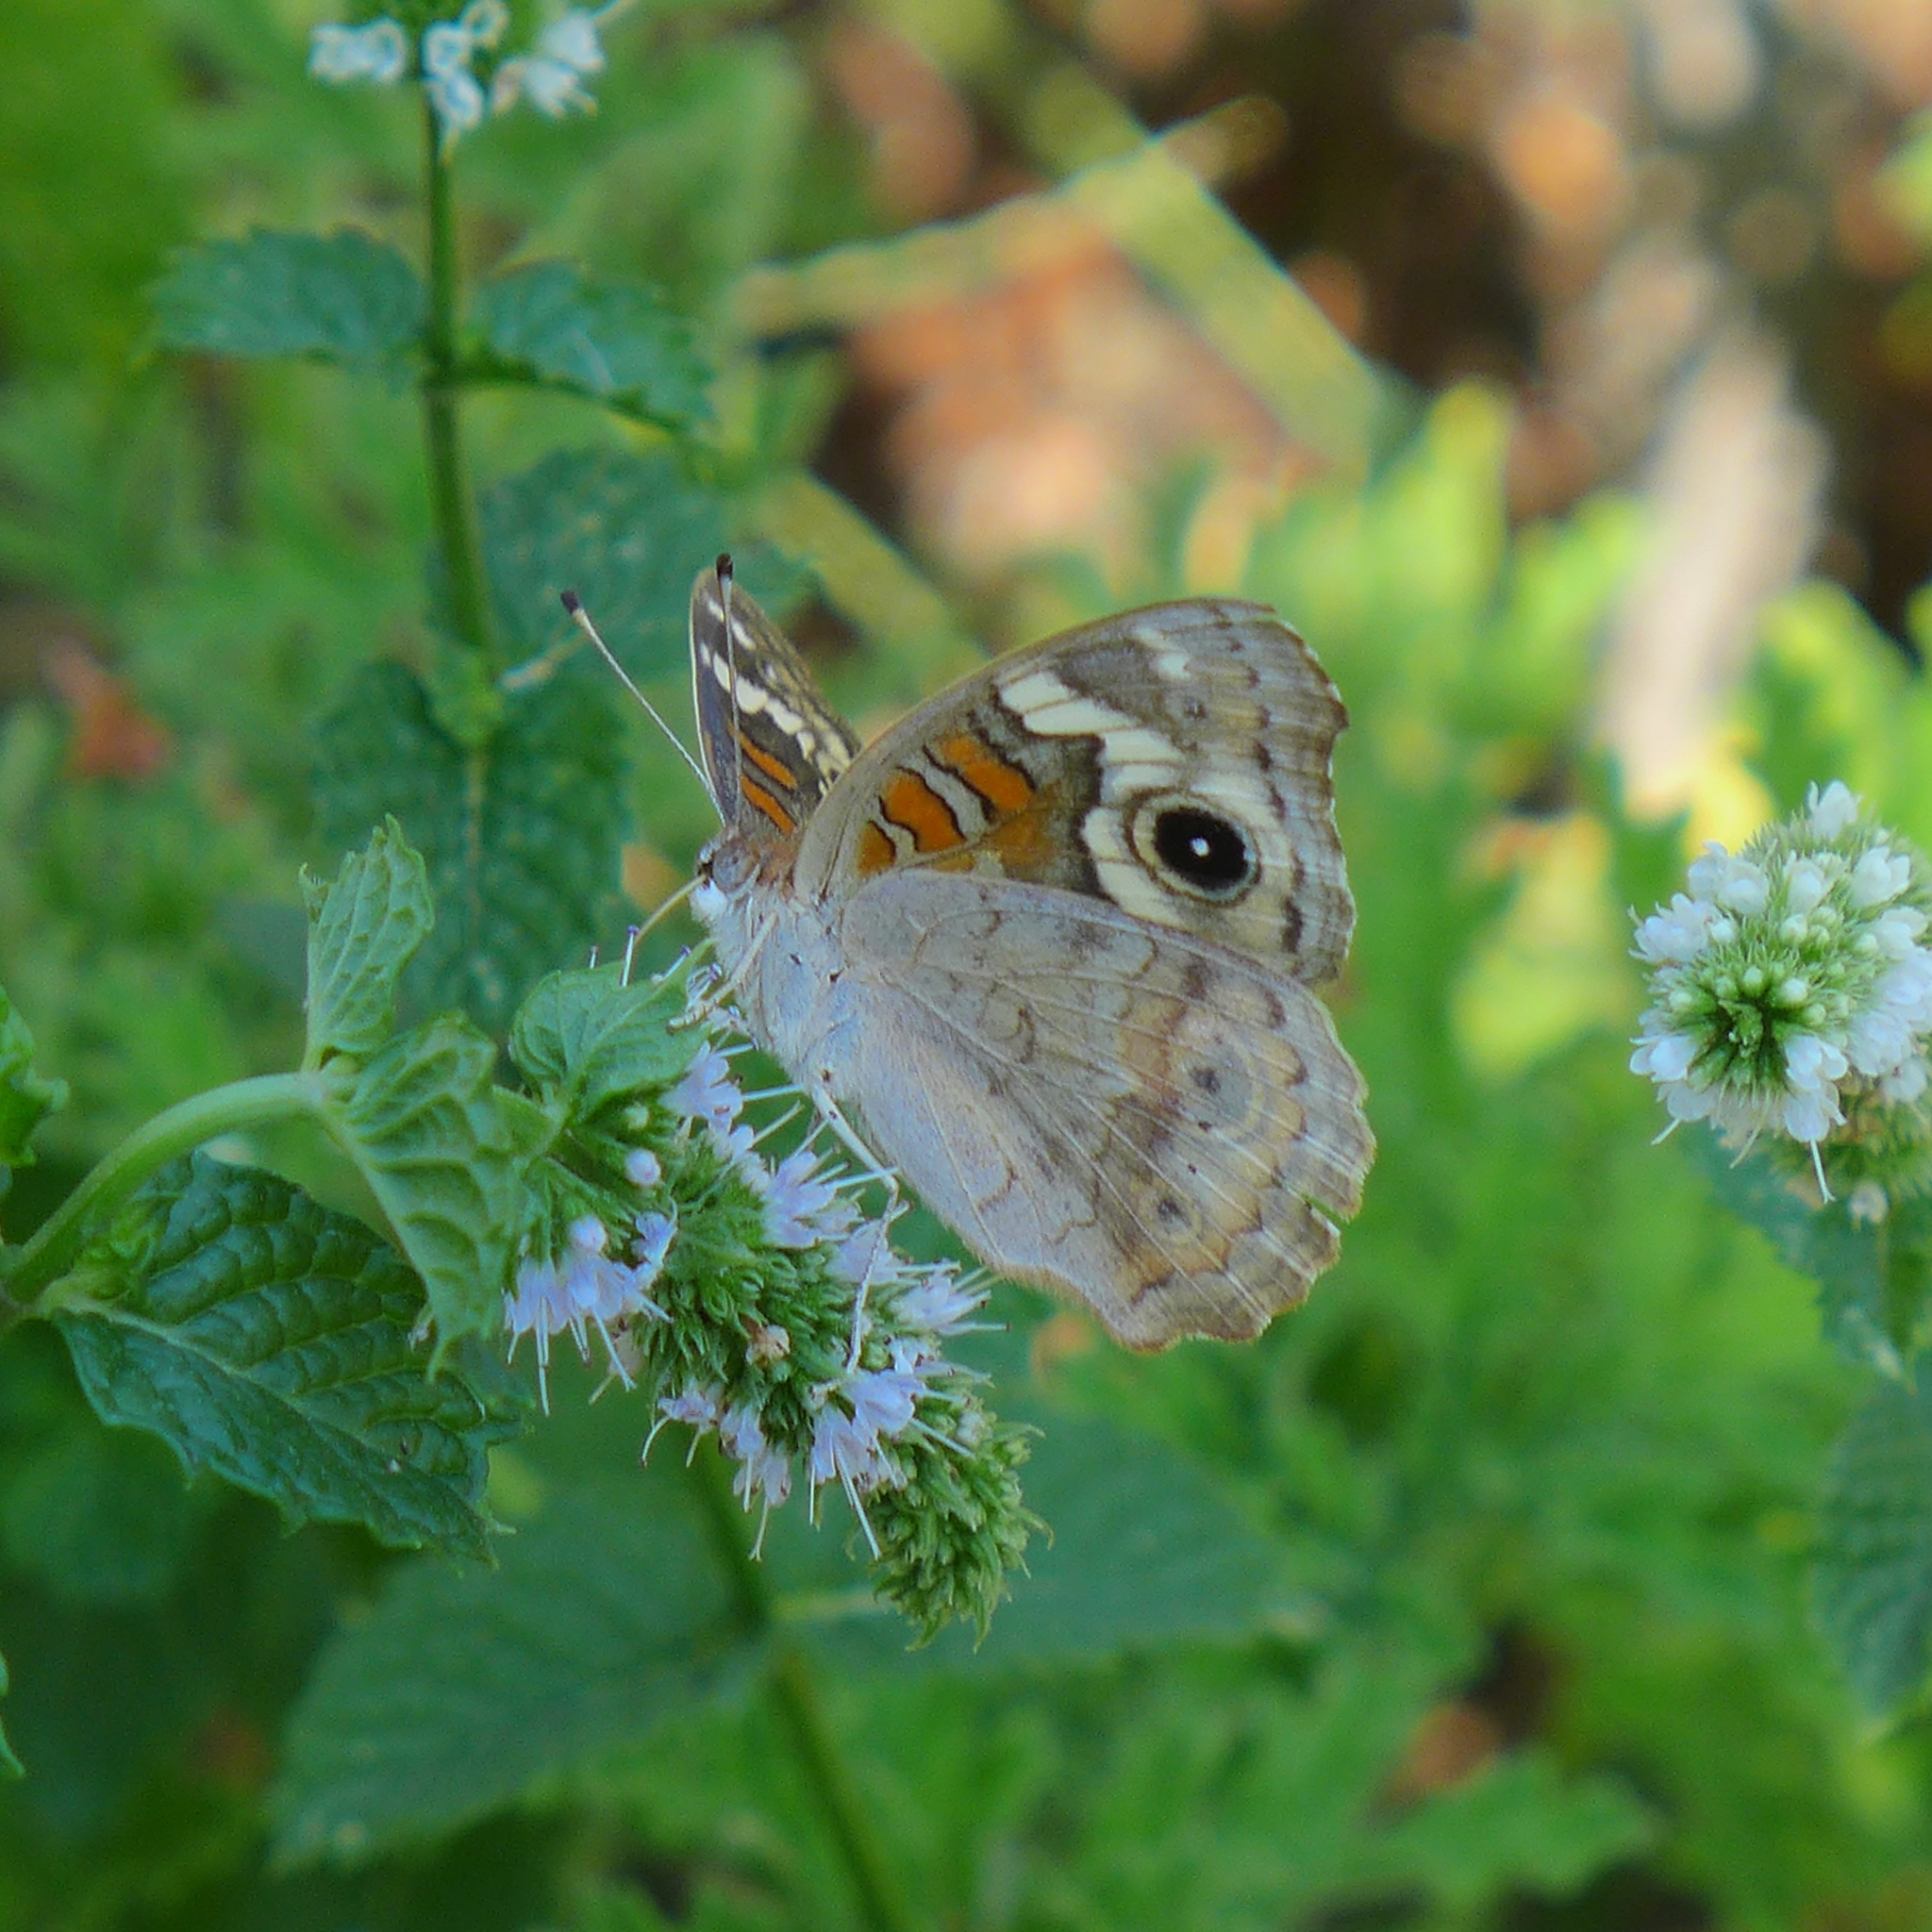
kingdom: Animalia
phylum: Arthropoda
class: Insecta
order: Lepidoptera
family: Nymphalidae
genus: Junonia
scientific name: Junonia grisea
